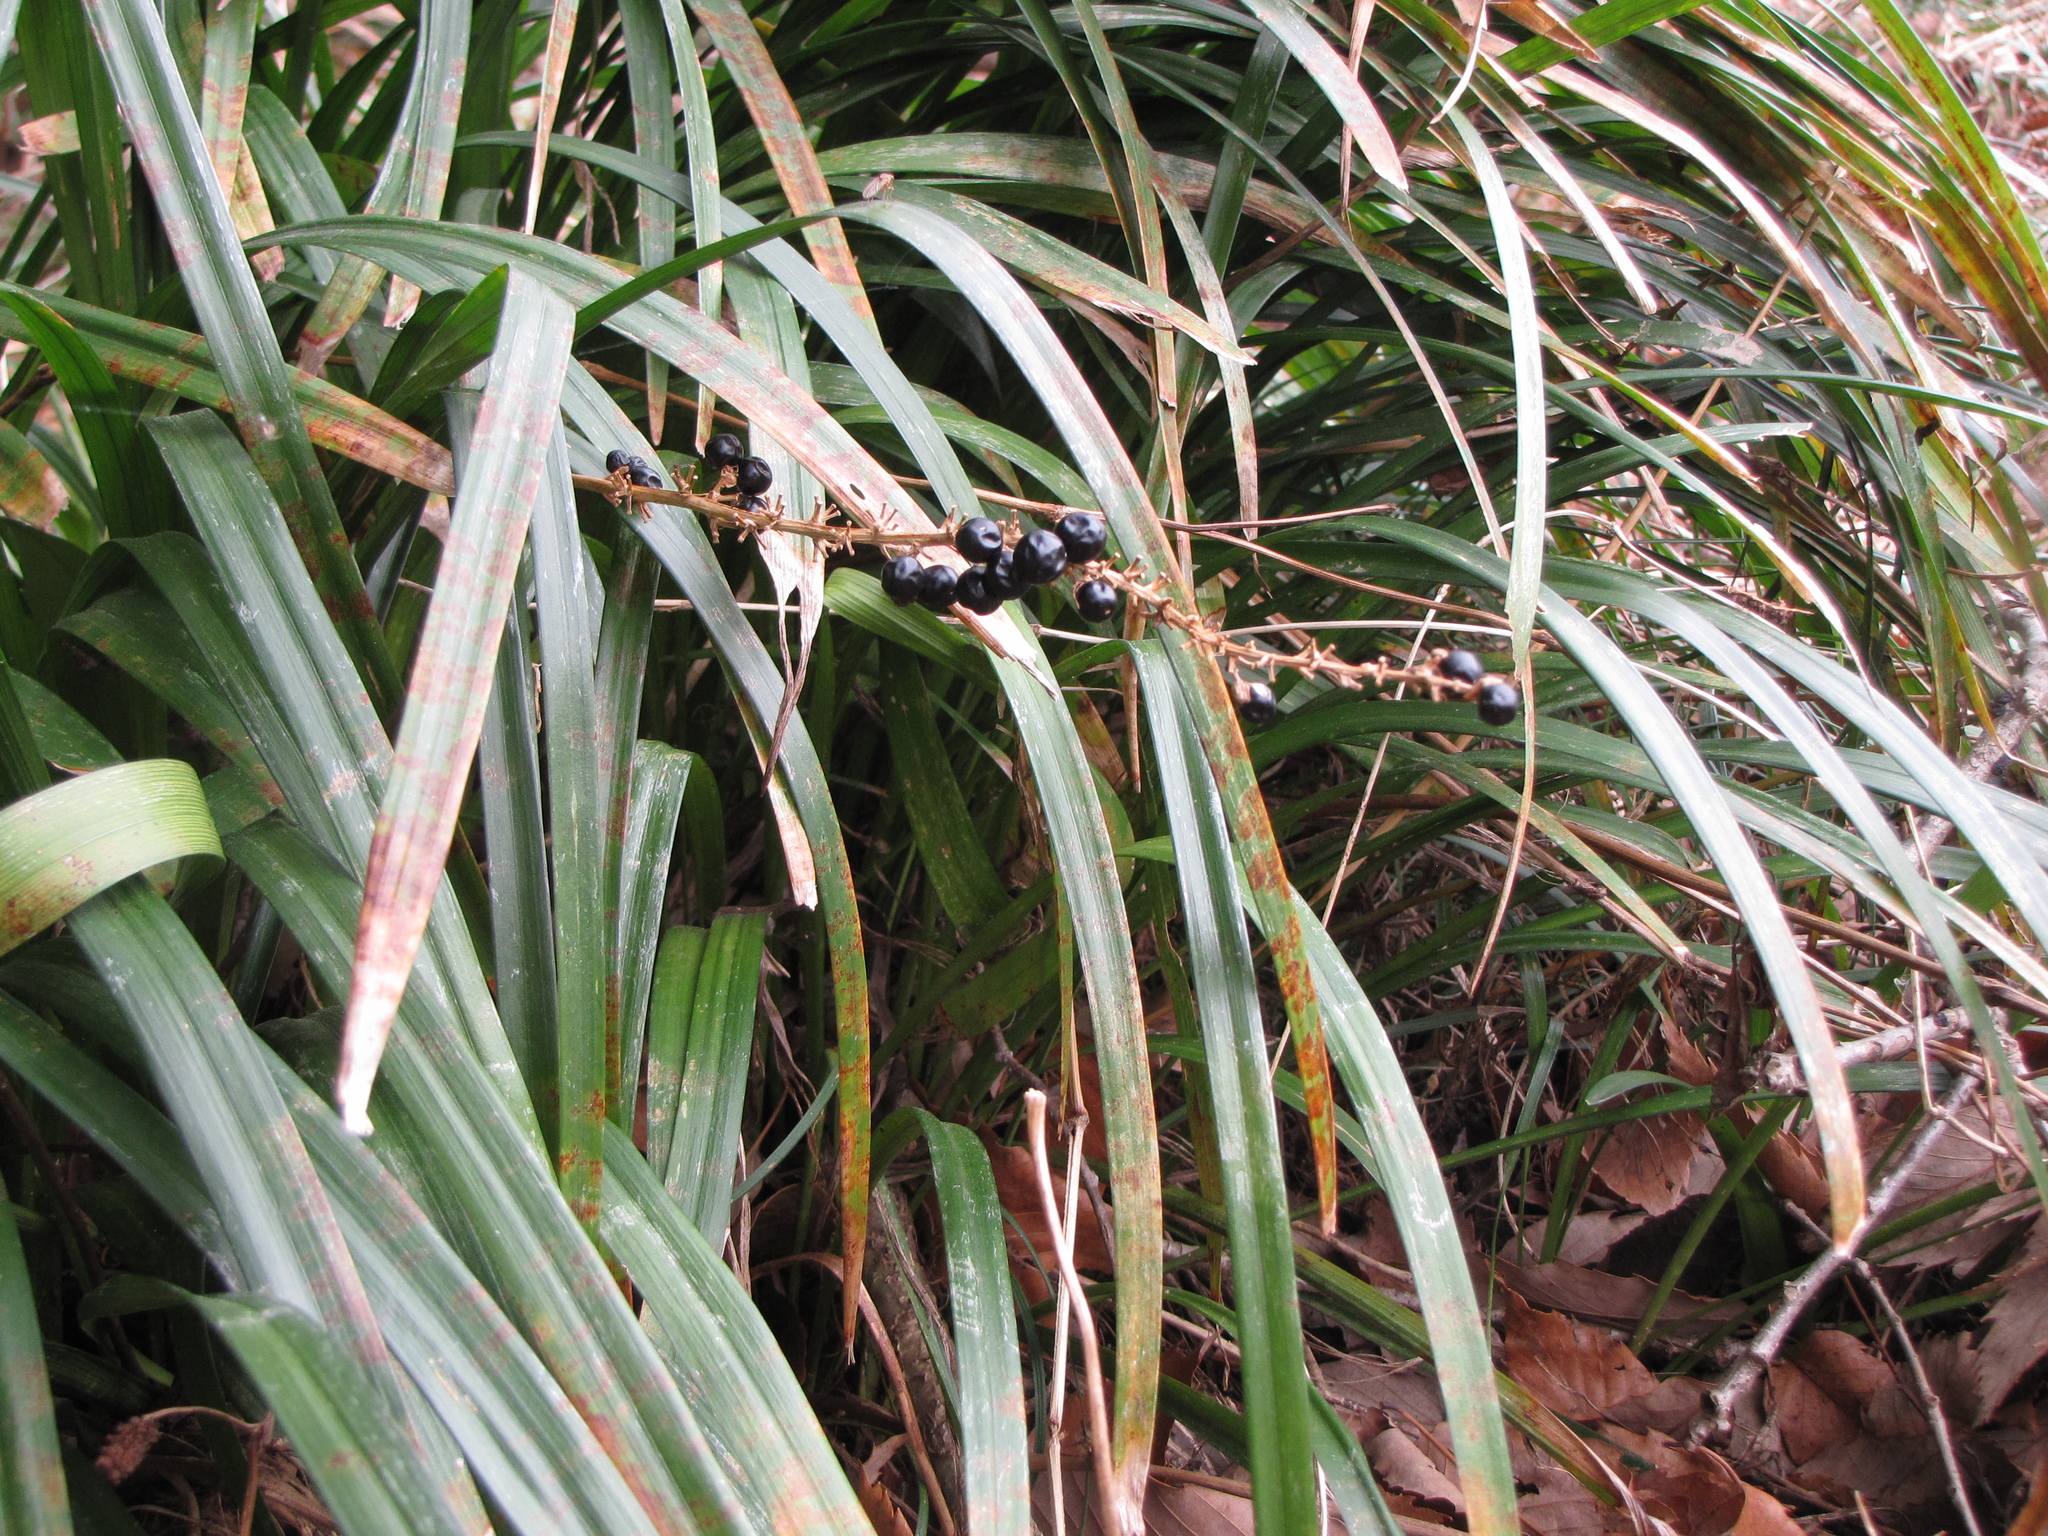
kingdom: Plantae
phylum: Tracheophyta
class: Liliopsida
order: Asparagales
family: Asparagaceae
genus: Liriope
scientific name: Liriope muscari
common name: Big blue lilyturf
